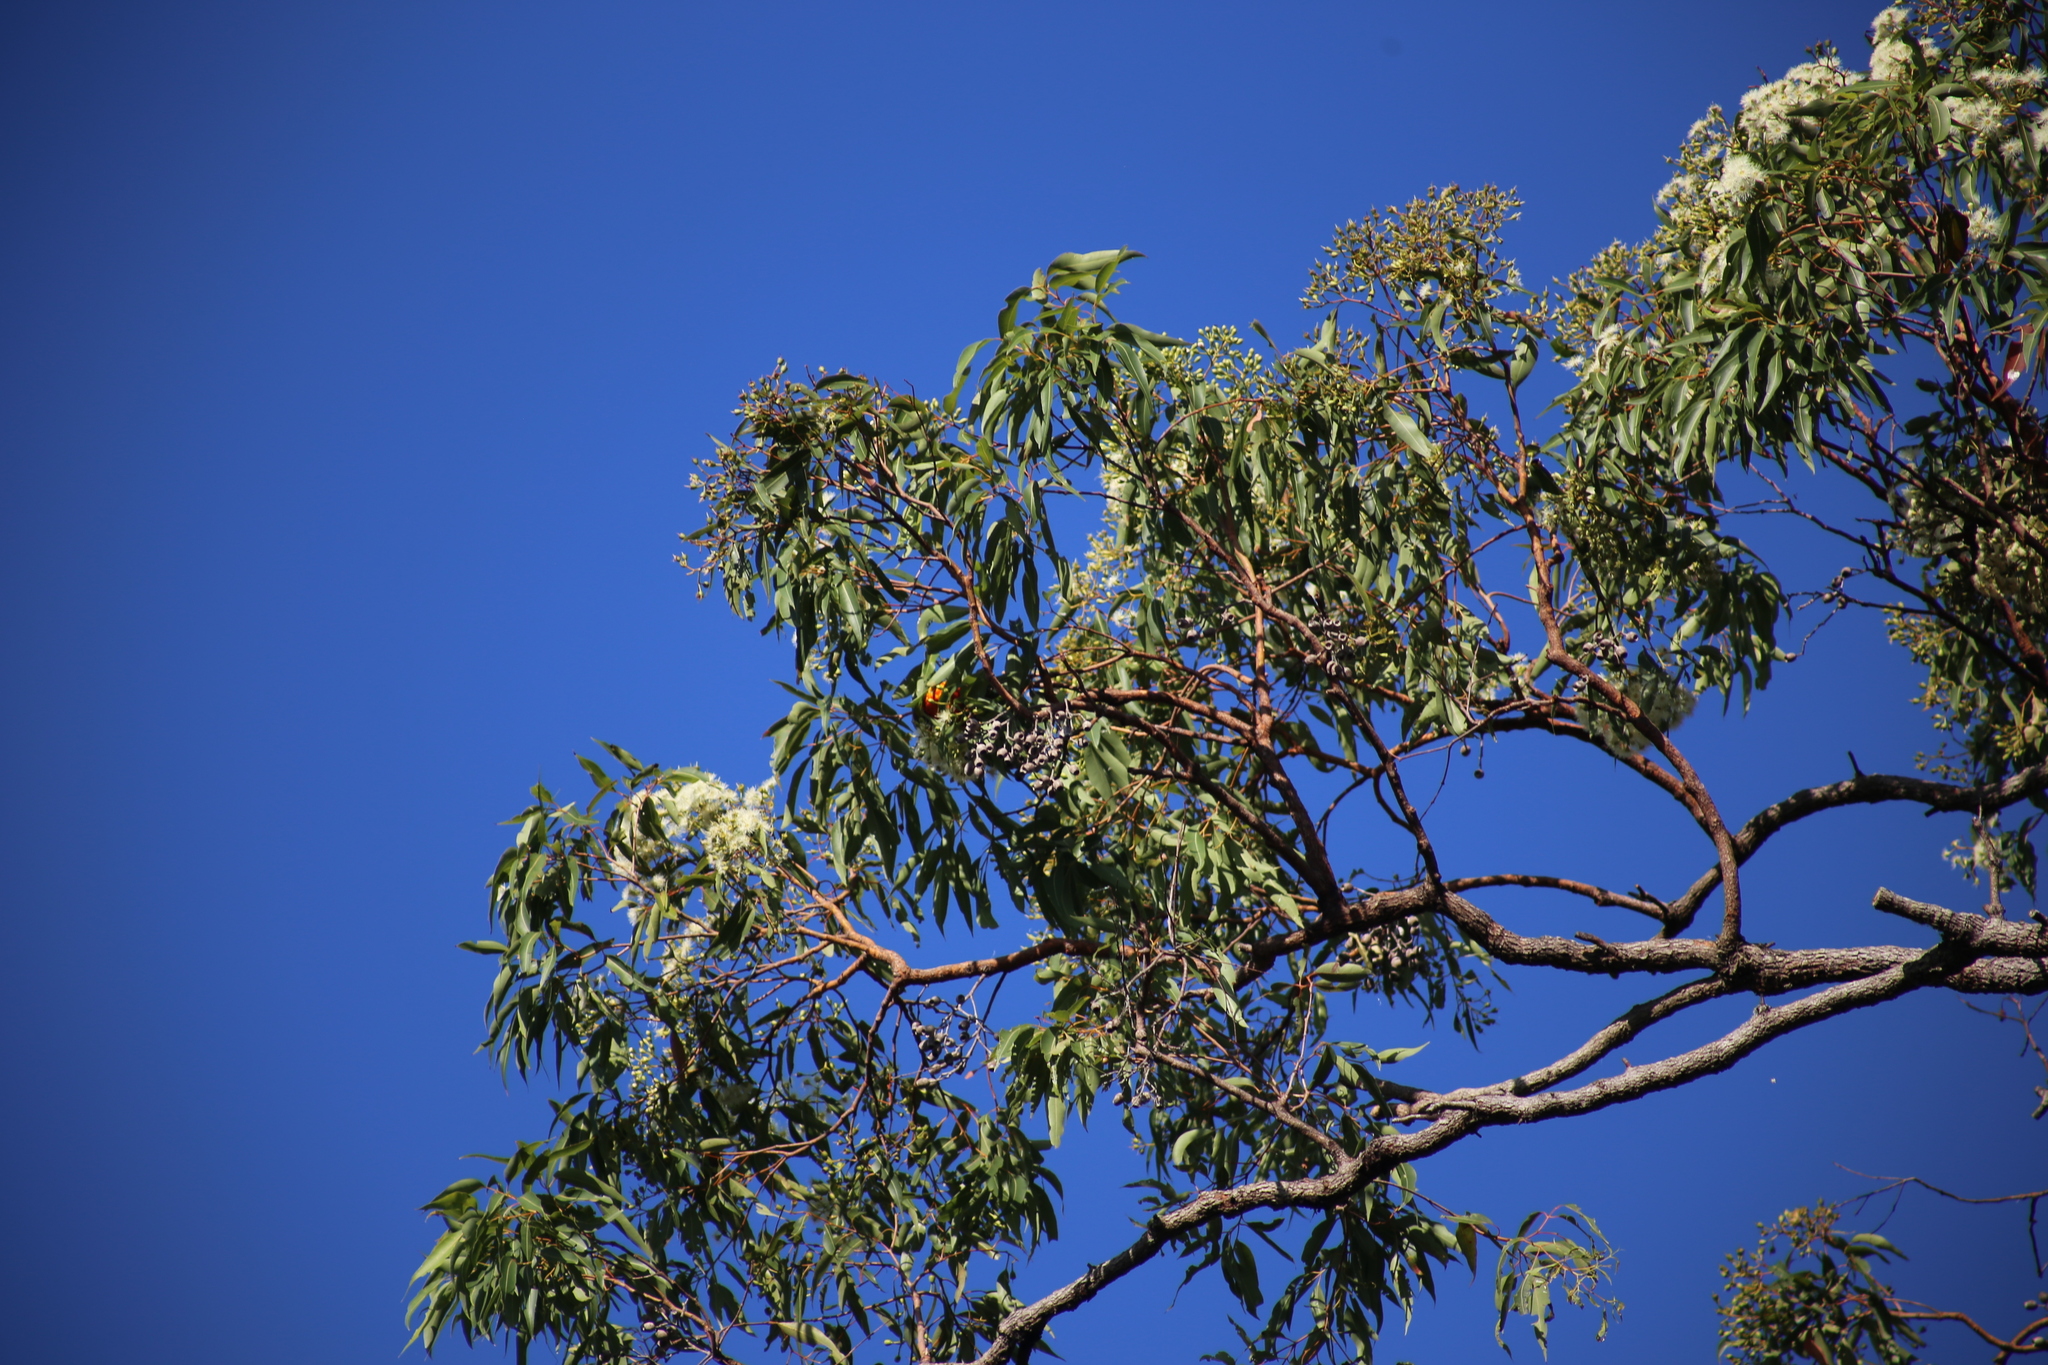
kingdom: Animalia
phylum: Chordata
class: Aves
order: Psittaciformes
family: Psittacidae
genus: Trichoglossus
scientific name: Trichoglossus haematodus
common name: Coconut lorikeet
